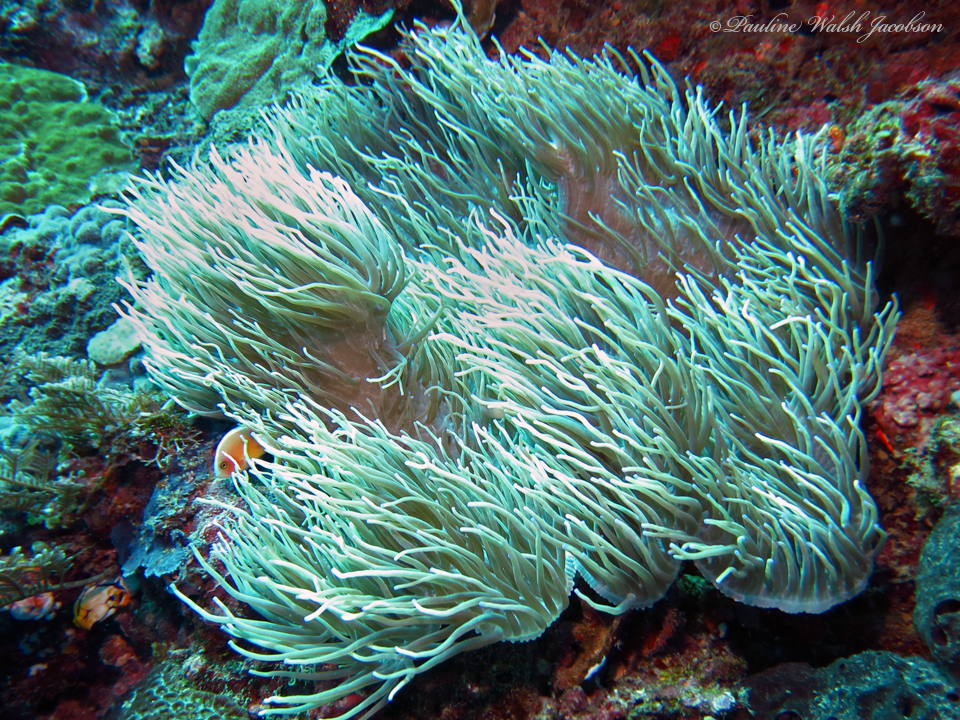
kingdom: Animalia
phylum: Chordata
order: Perciformes
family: Pomacentridae
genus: Amphiprion
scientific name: Amphiprion perideraion
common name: Pink anemonefish
